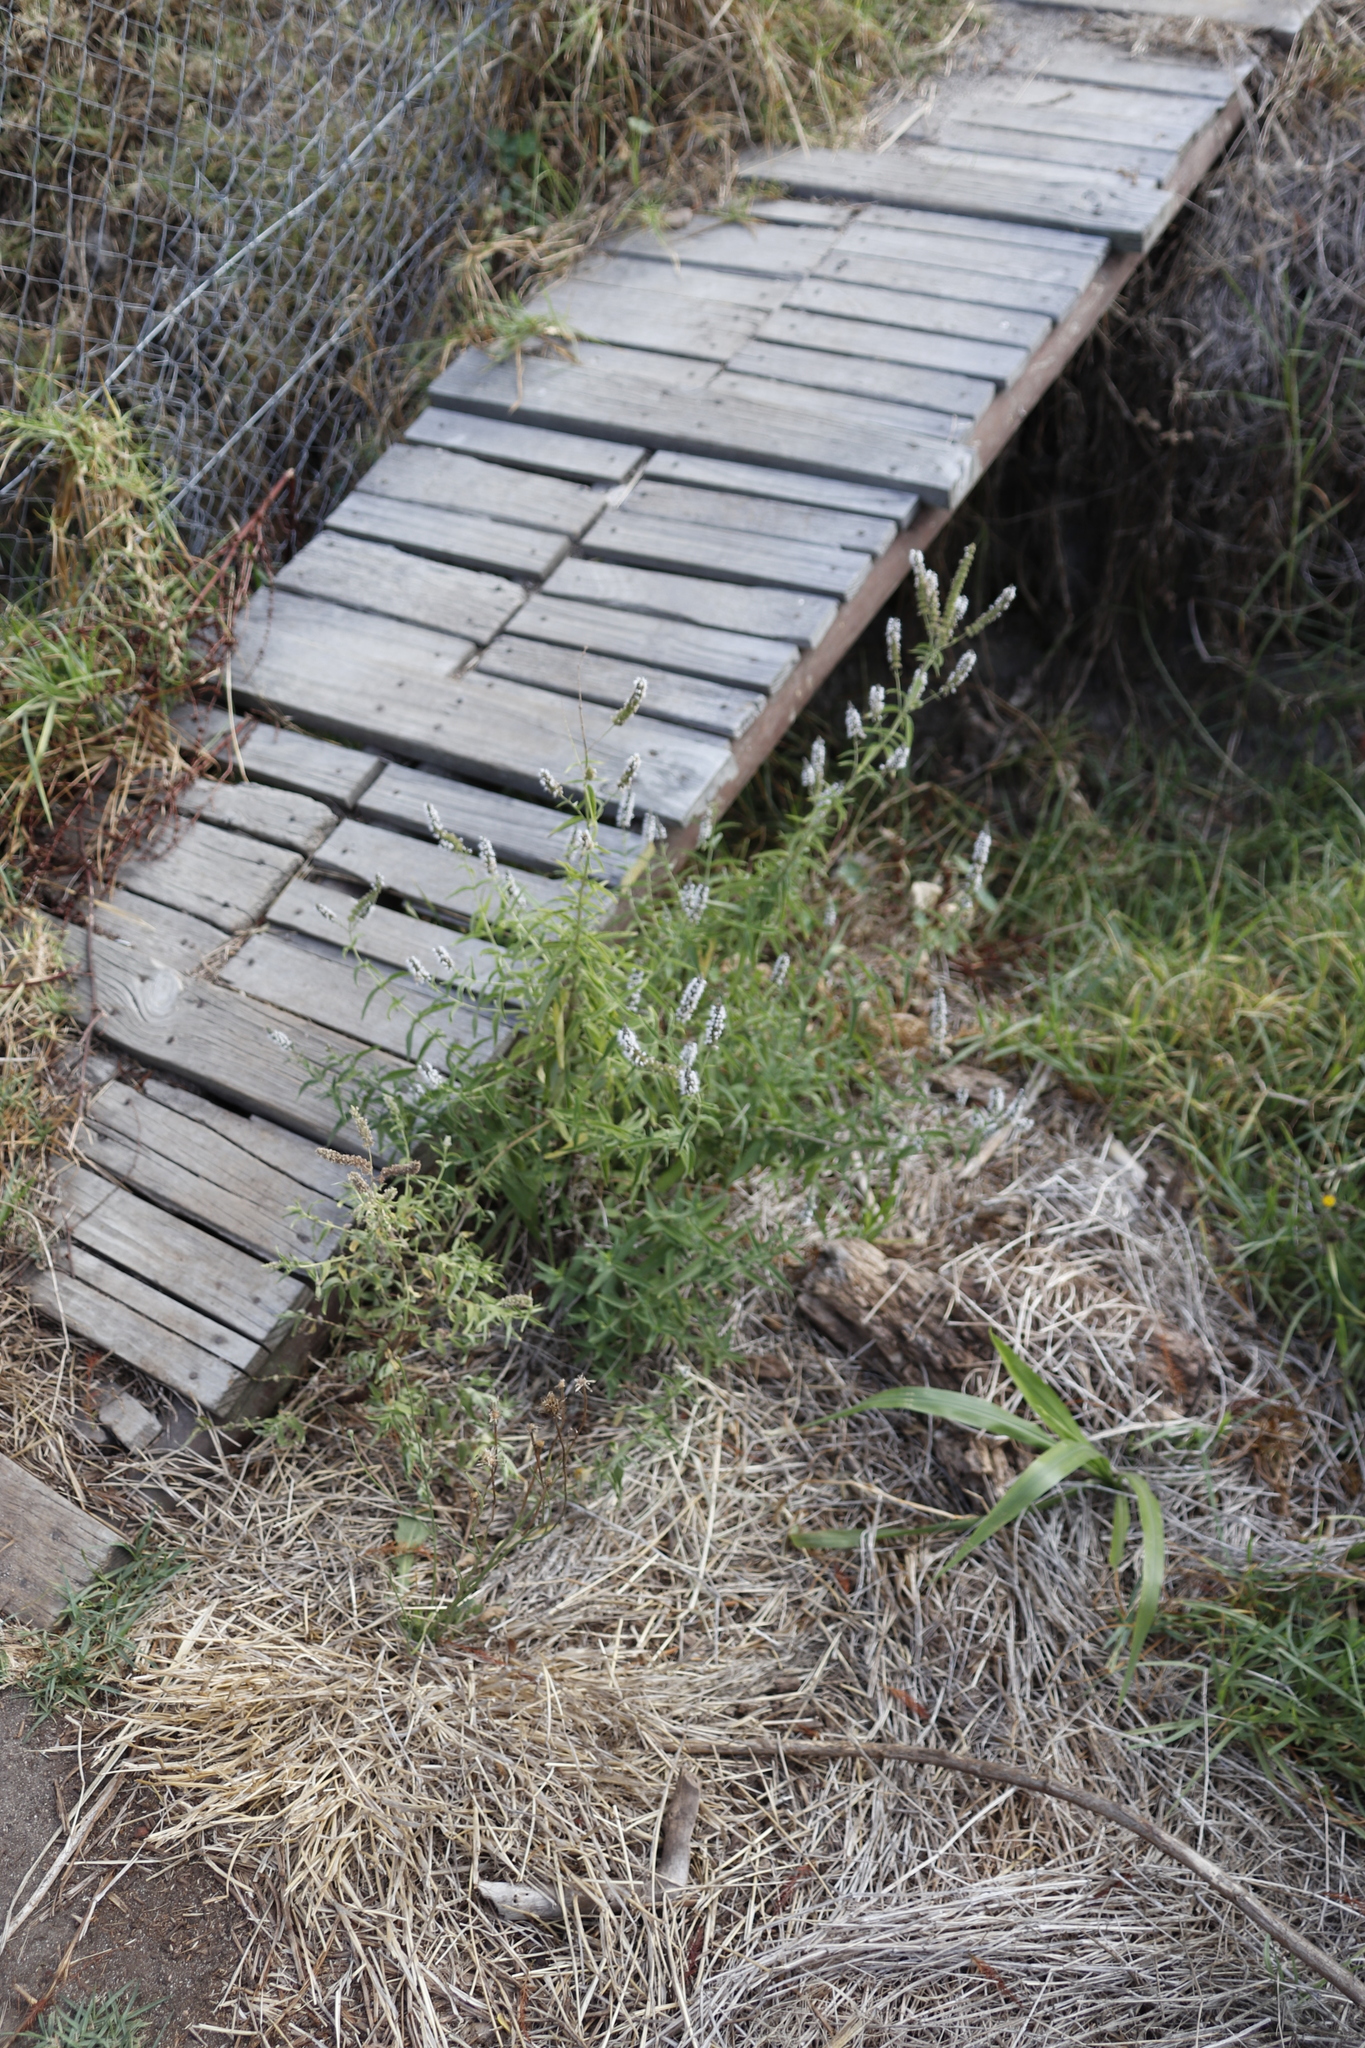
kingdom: Plantae
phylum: Tracheophyta
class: Magnoliopsida
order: Lamiales
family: Lamiaceae
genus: Mentha
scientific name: Mentha longifolia
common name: Horse mint
